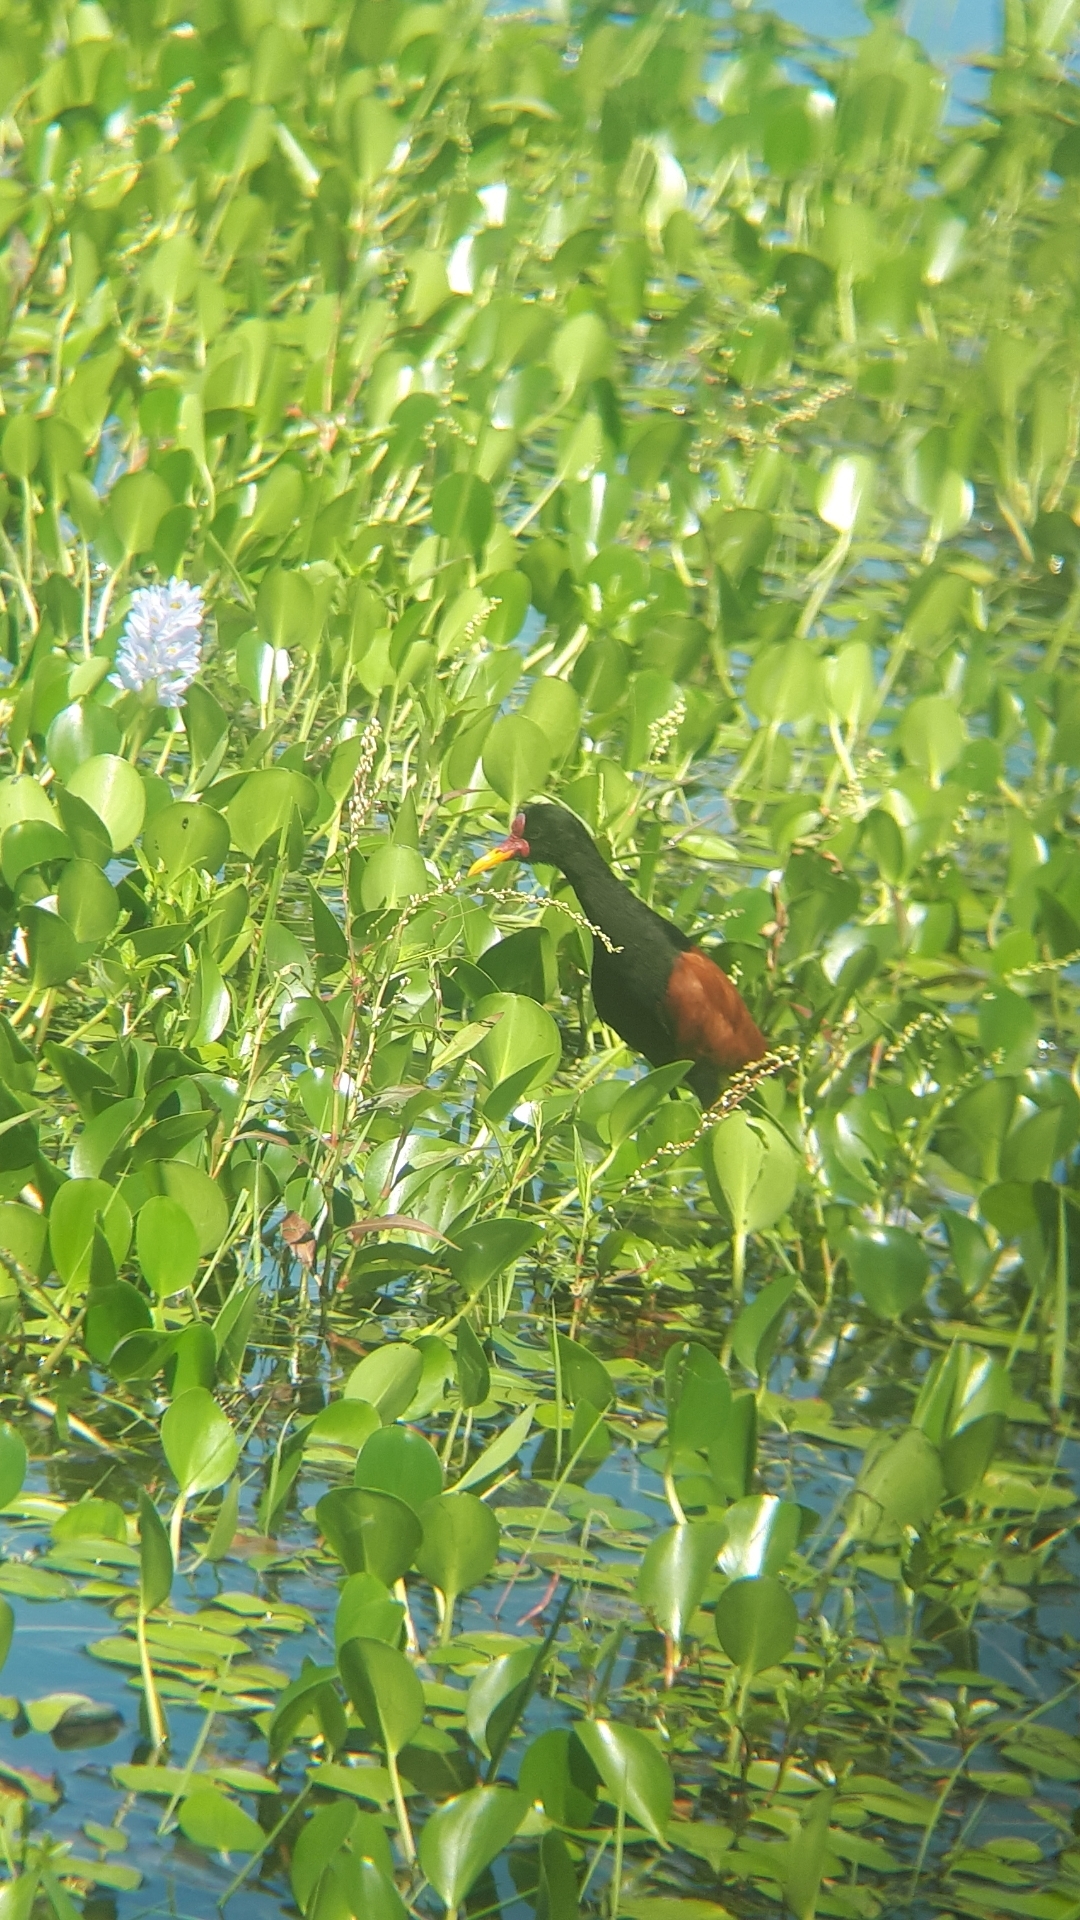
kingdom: Animalia
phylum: Chordata
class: Aves
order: Charadriiformes
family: Jacanidae
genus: Jacana
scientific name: Jacana jacana
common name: Wattled jacana
